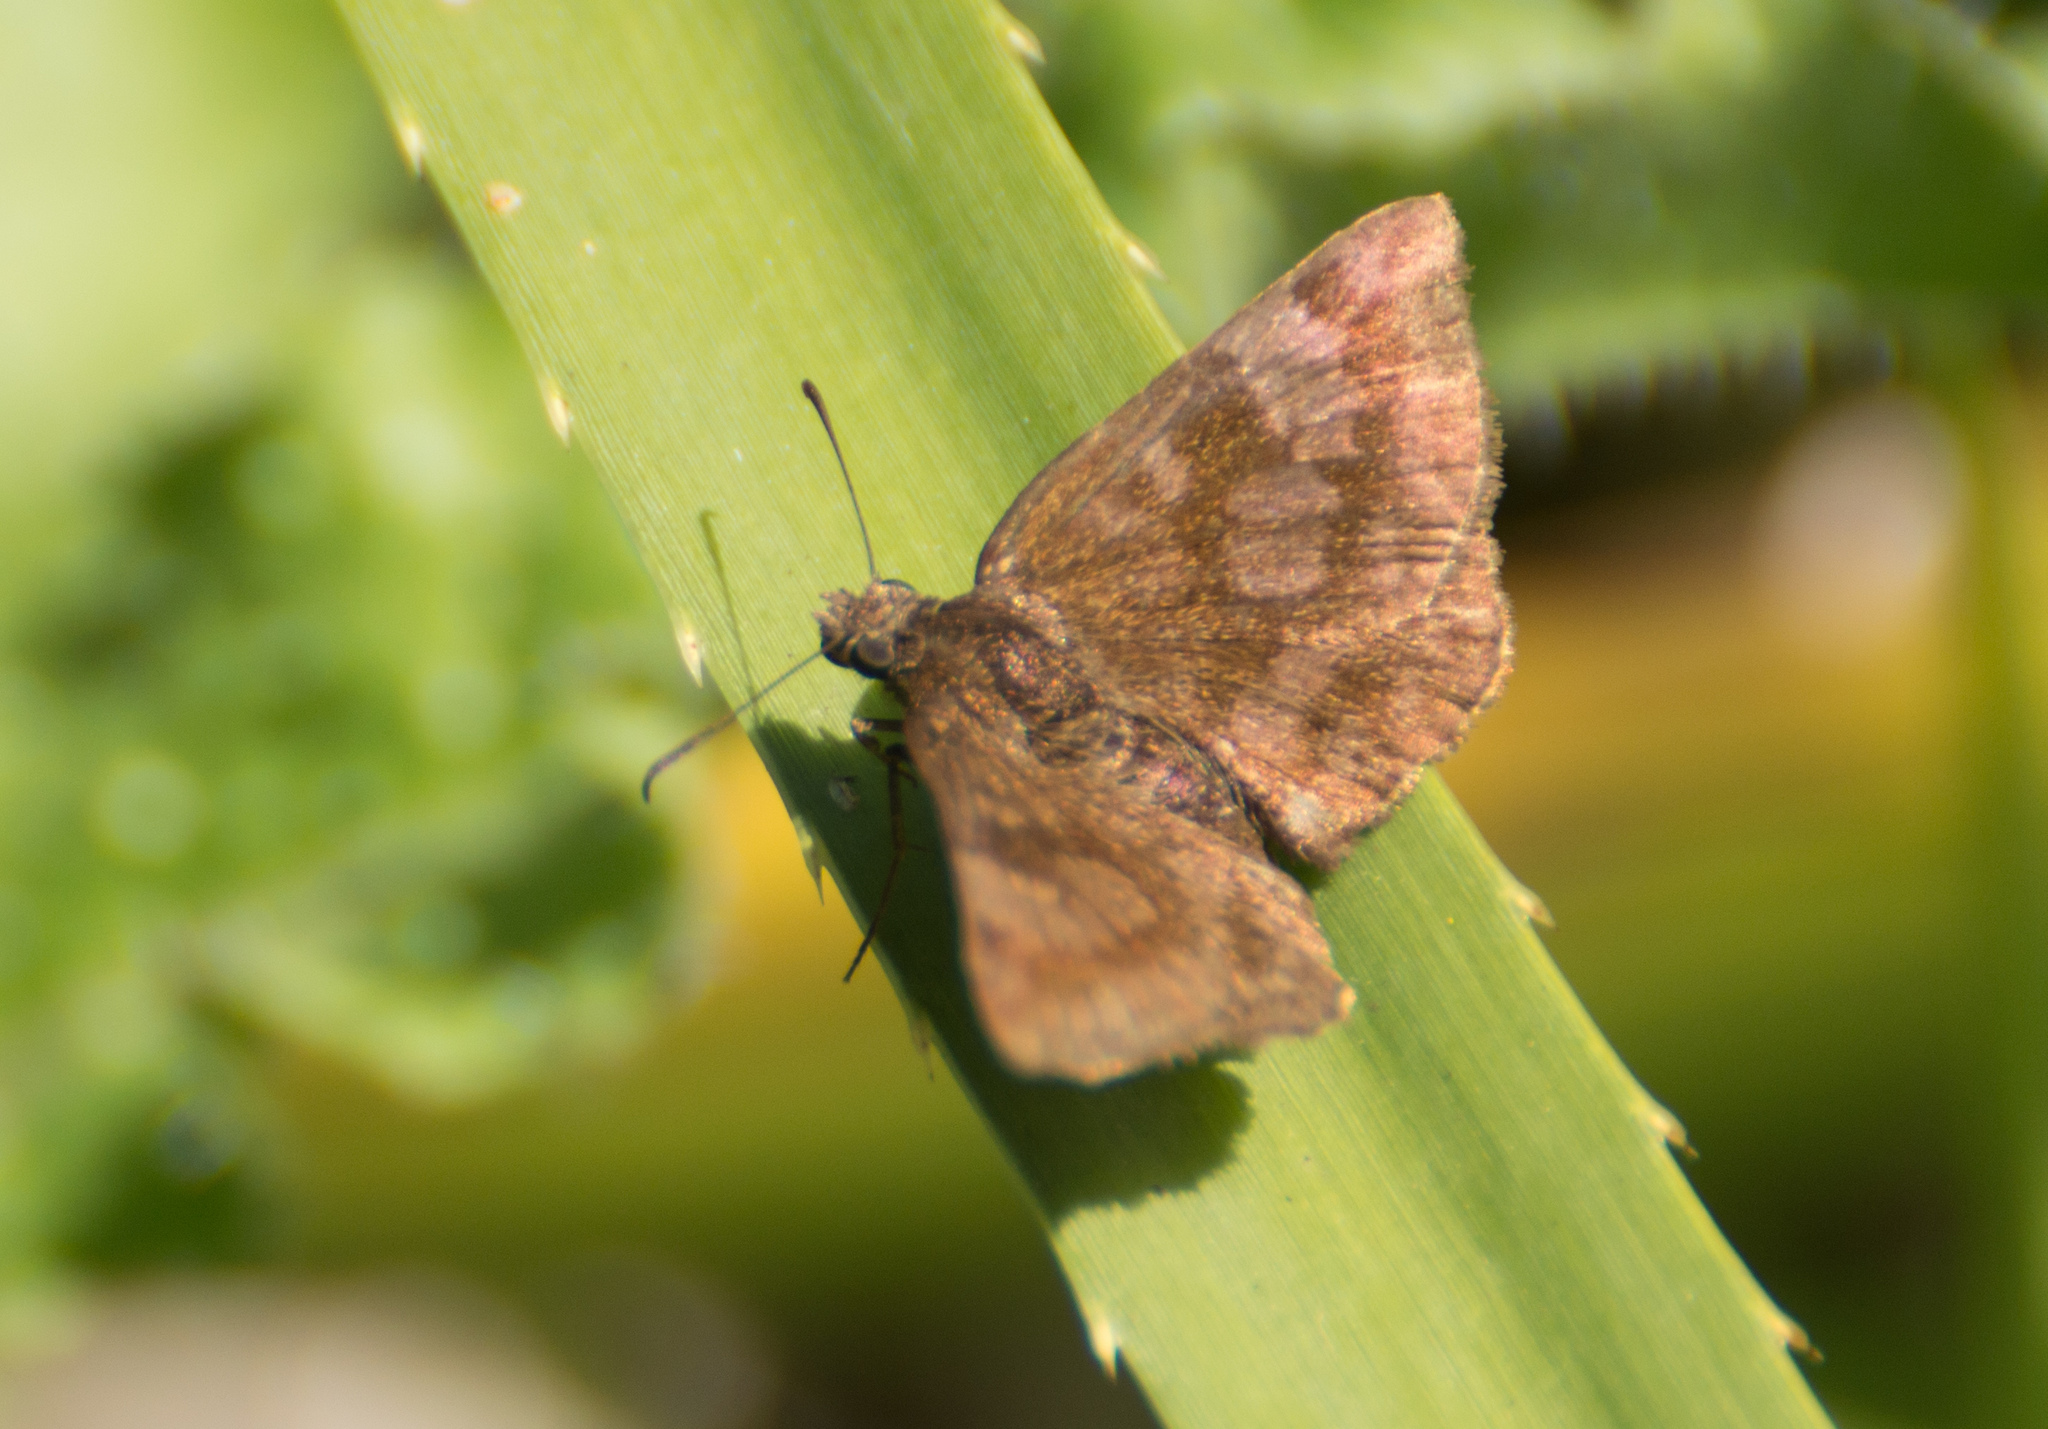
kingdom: Animalia
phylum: Arthropoda
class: Insecta
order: Lepidoptera
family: Hesperiidae
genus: Viola
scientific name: Viola minor
